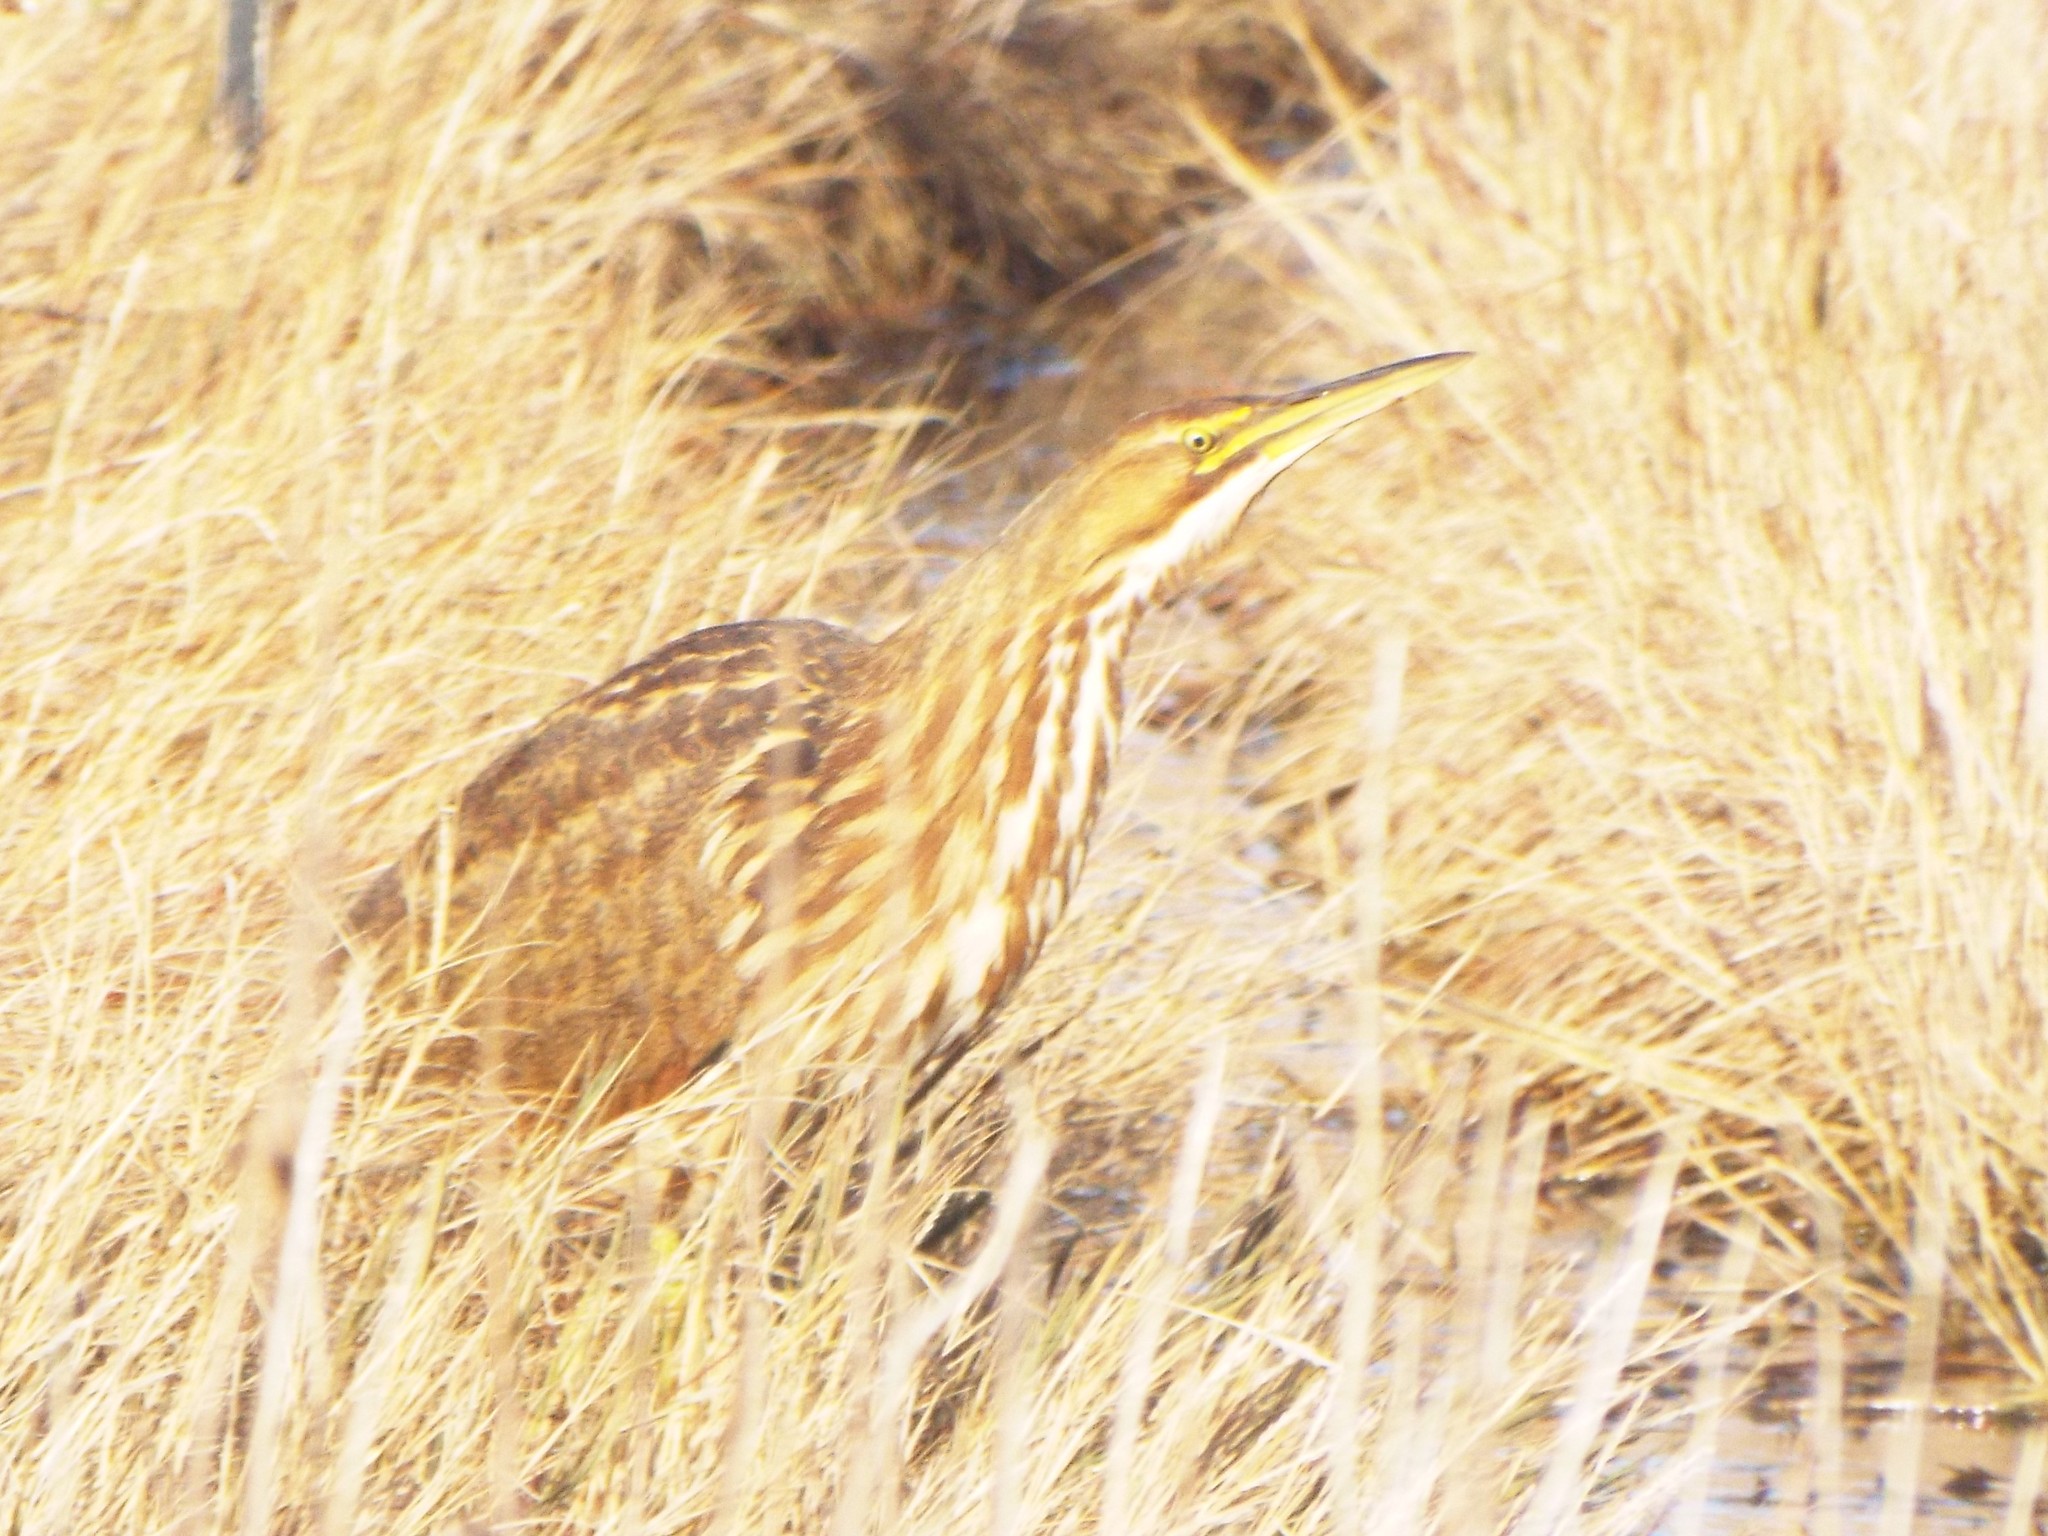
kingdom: Animalia
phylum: Chordata
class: Aves
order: Pelecaniformes
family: Ardeidae
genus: Botaurus
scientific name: Botaurus lentiginosus
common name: American bittern
